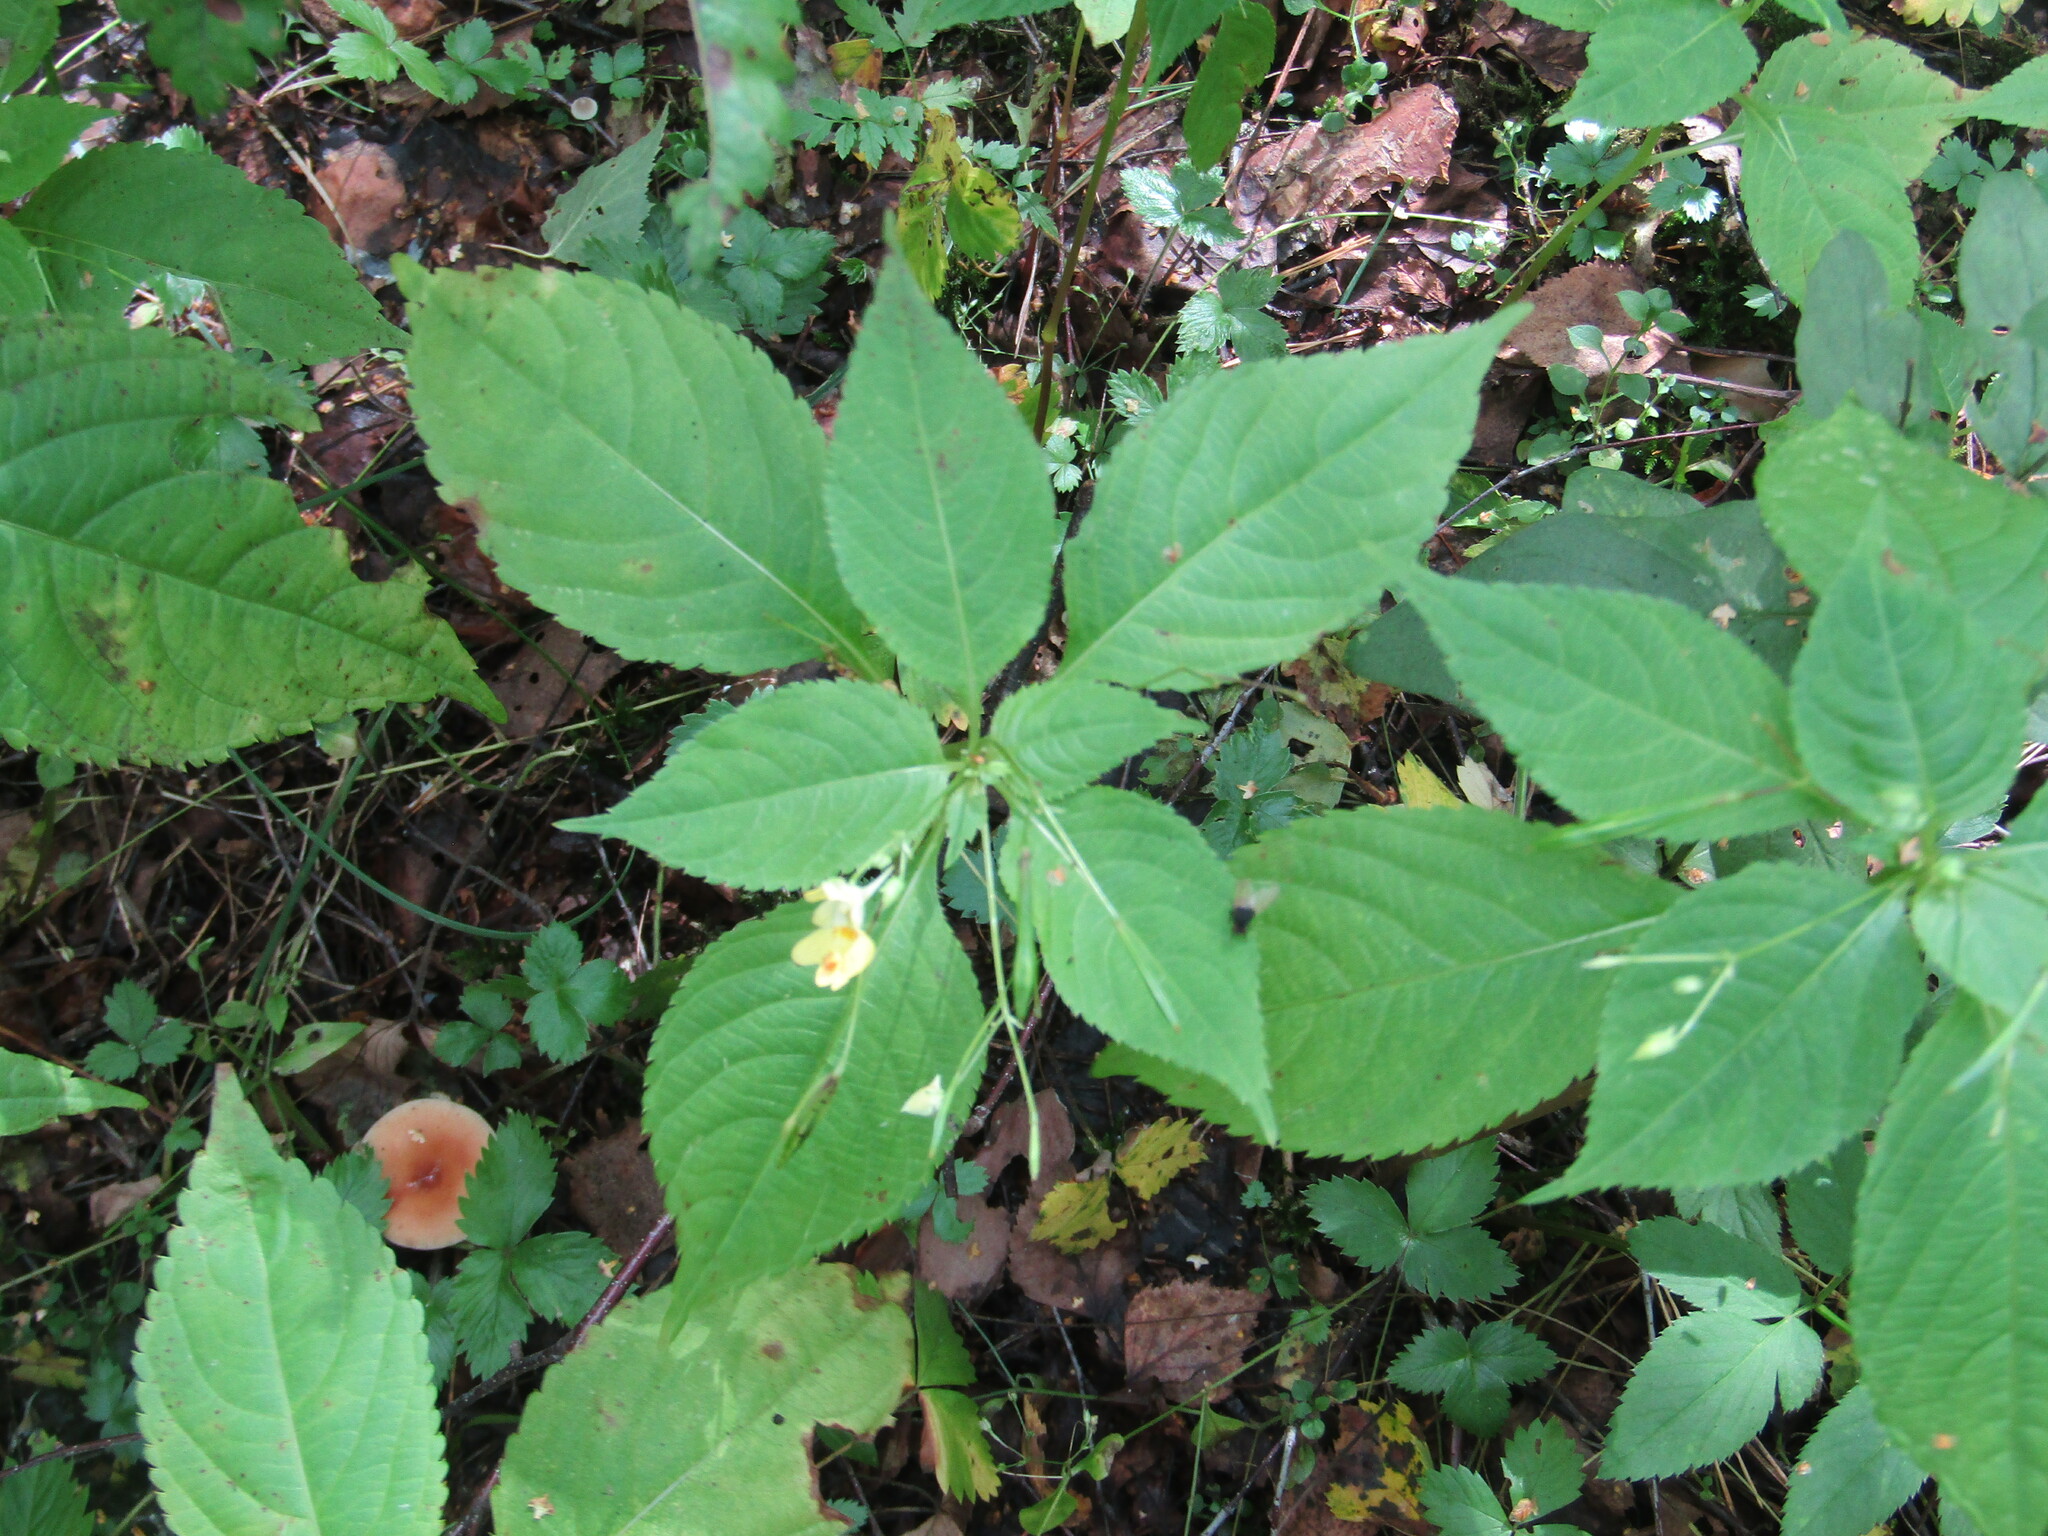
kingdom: Plantae
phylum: Tracheophyta
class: Magnoliopsida
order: Ericales
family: Balsaminaceae
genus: Impatiens
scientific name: Impatiens parviflora
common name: Small balsam
